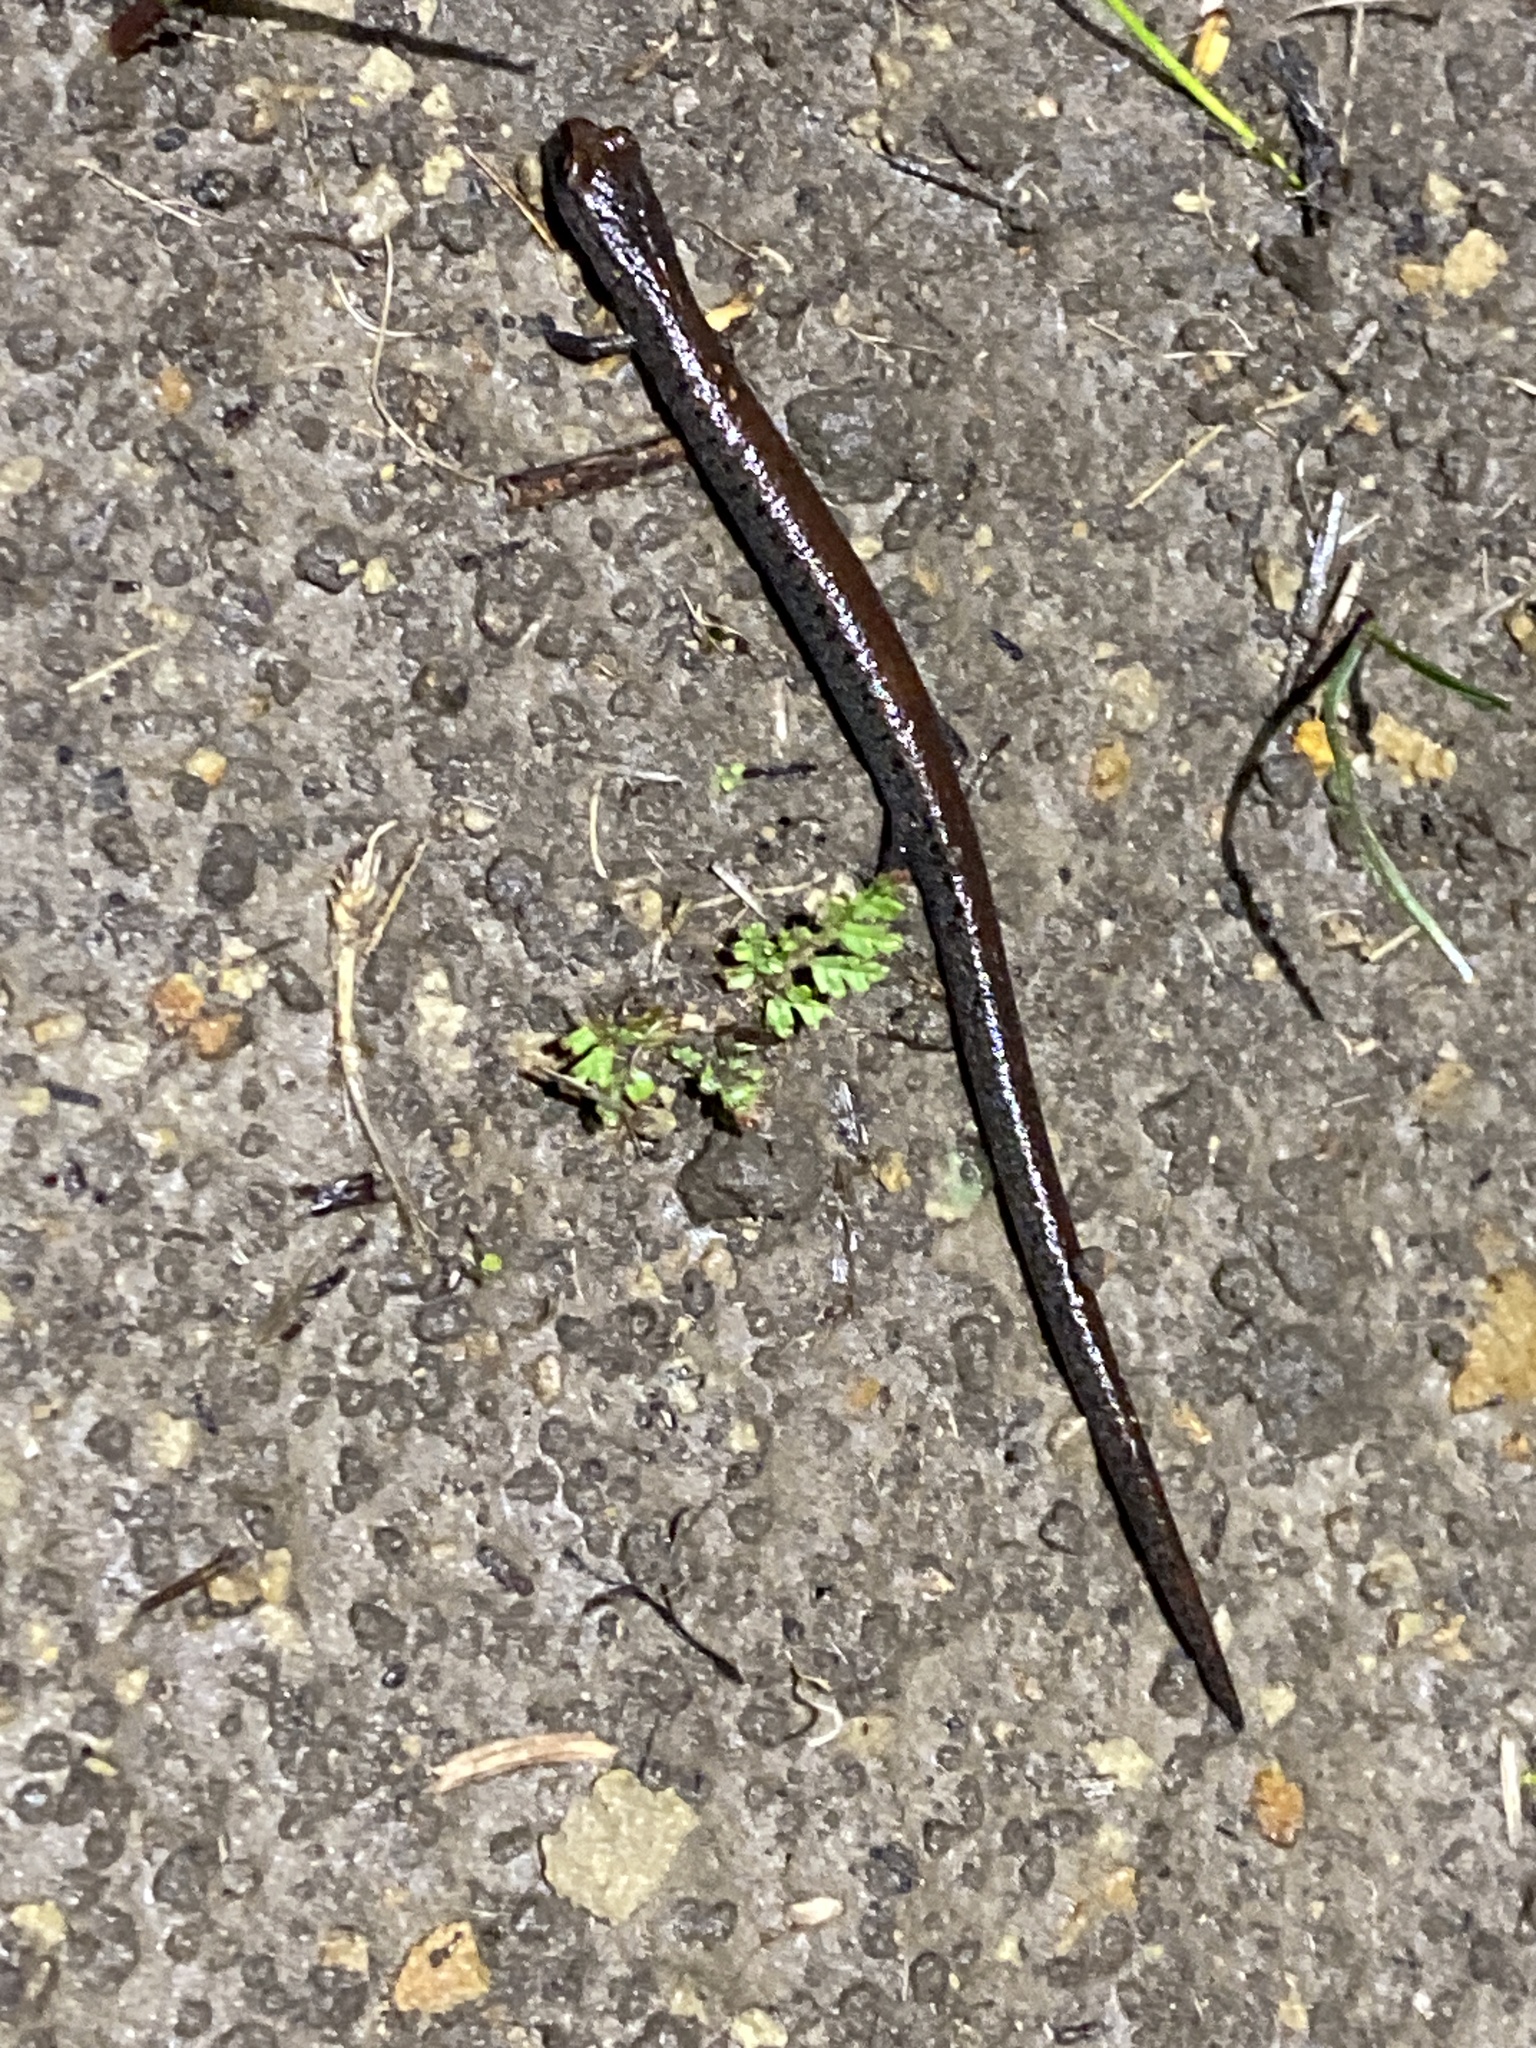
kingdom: Animalia
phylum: Chordata
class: Amphibia
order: Caudata
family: Plethodontidae
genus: Batrachoseps
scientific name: Batrachoseps attenuatus
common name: California slender salamander
